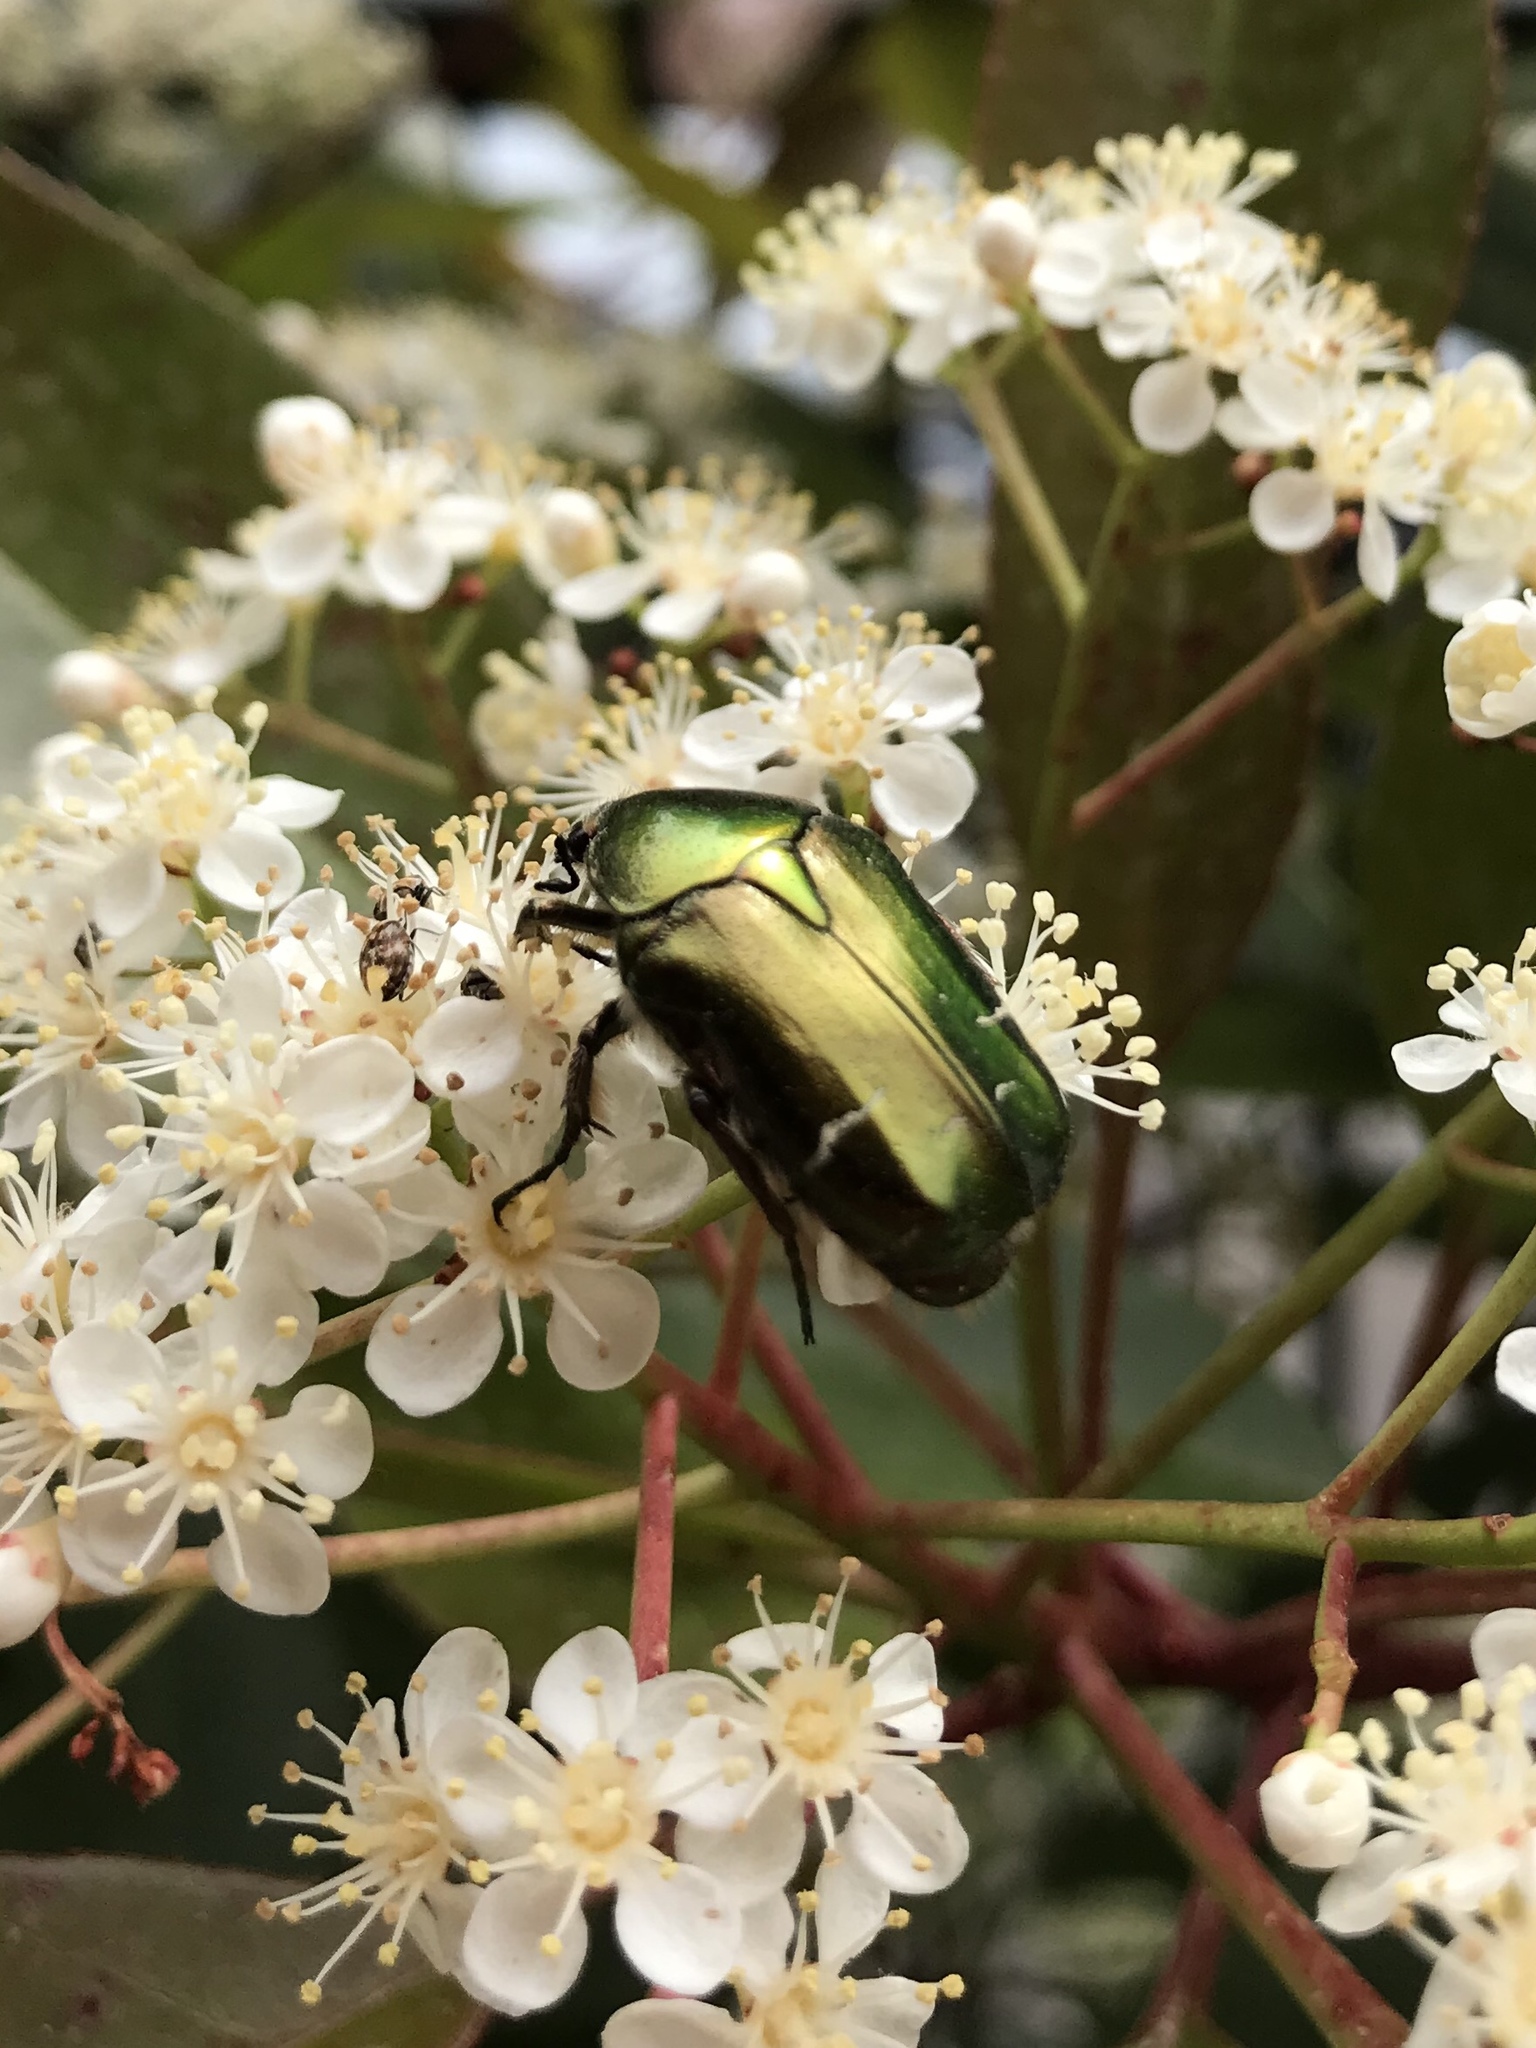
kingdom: Animalia
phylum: Arthropoda
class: Insecta
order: Coleoptera
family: Scarabaeidae
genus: Cetonia
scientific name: Cetonia aurata
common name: Rose chafer
